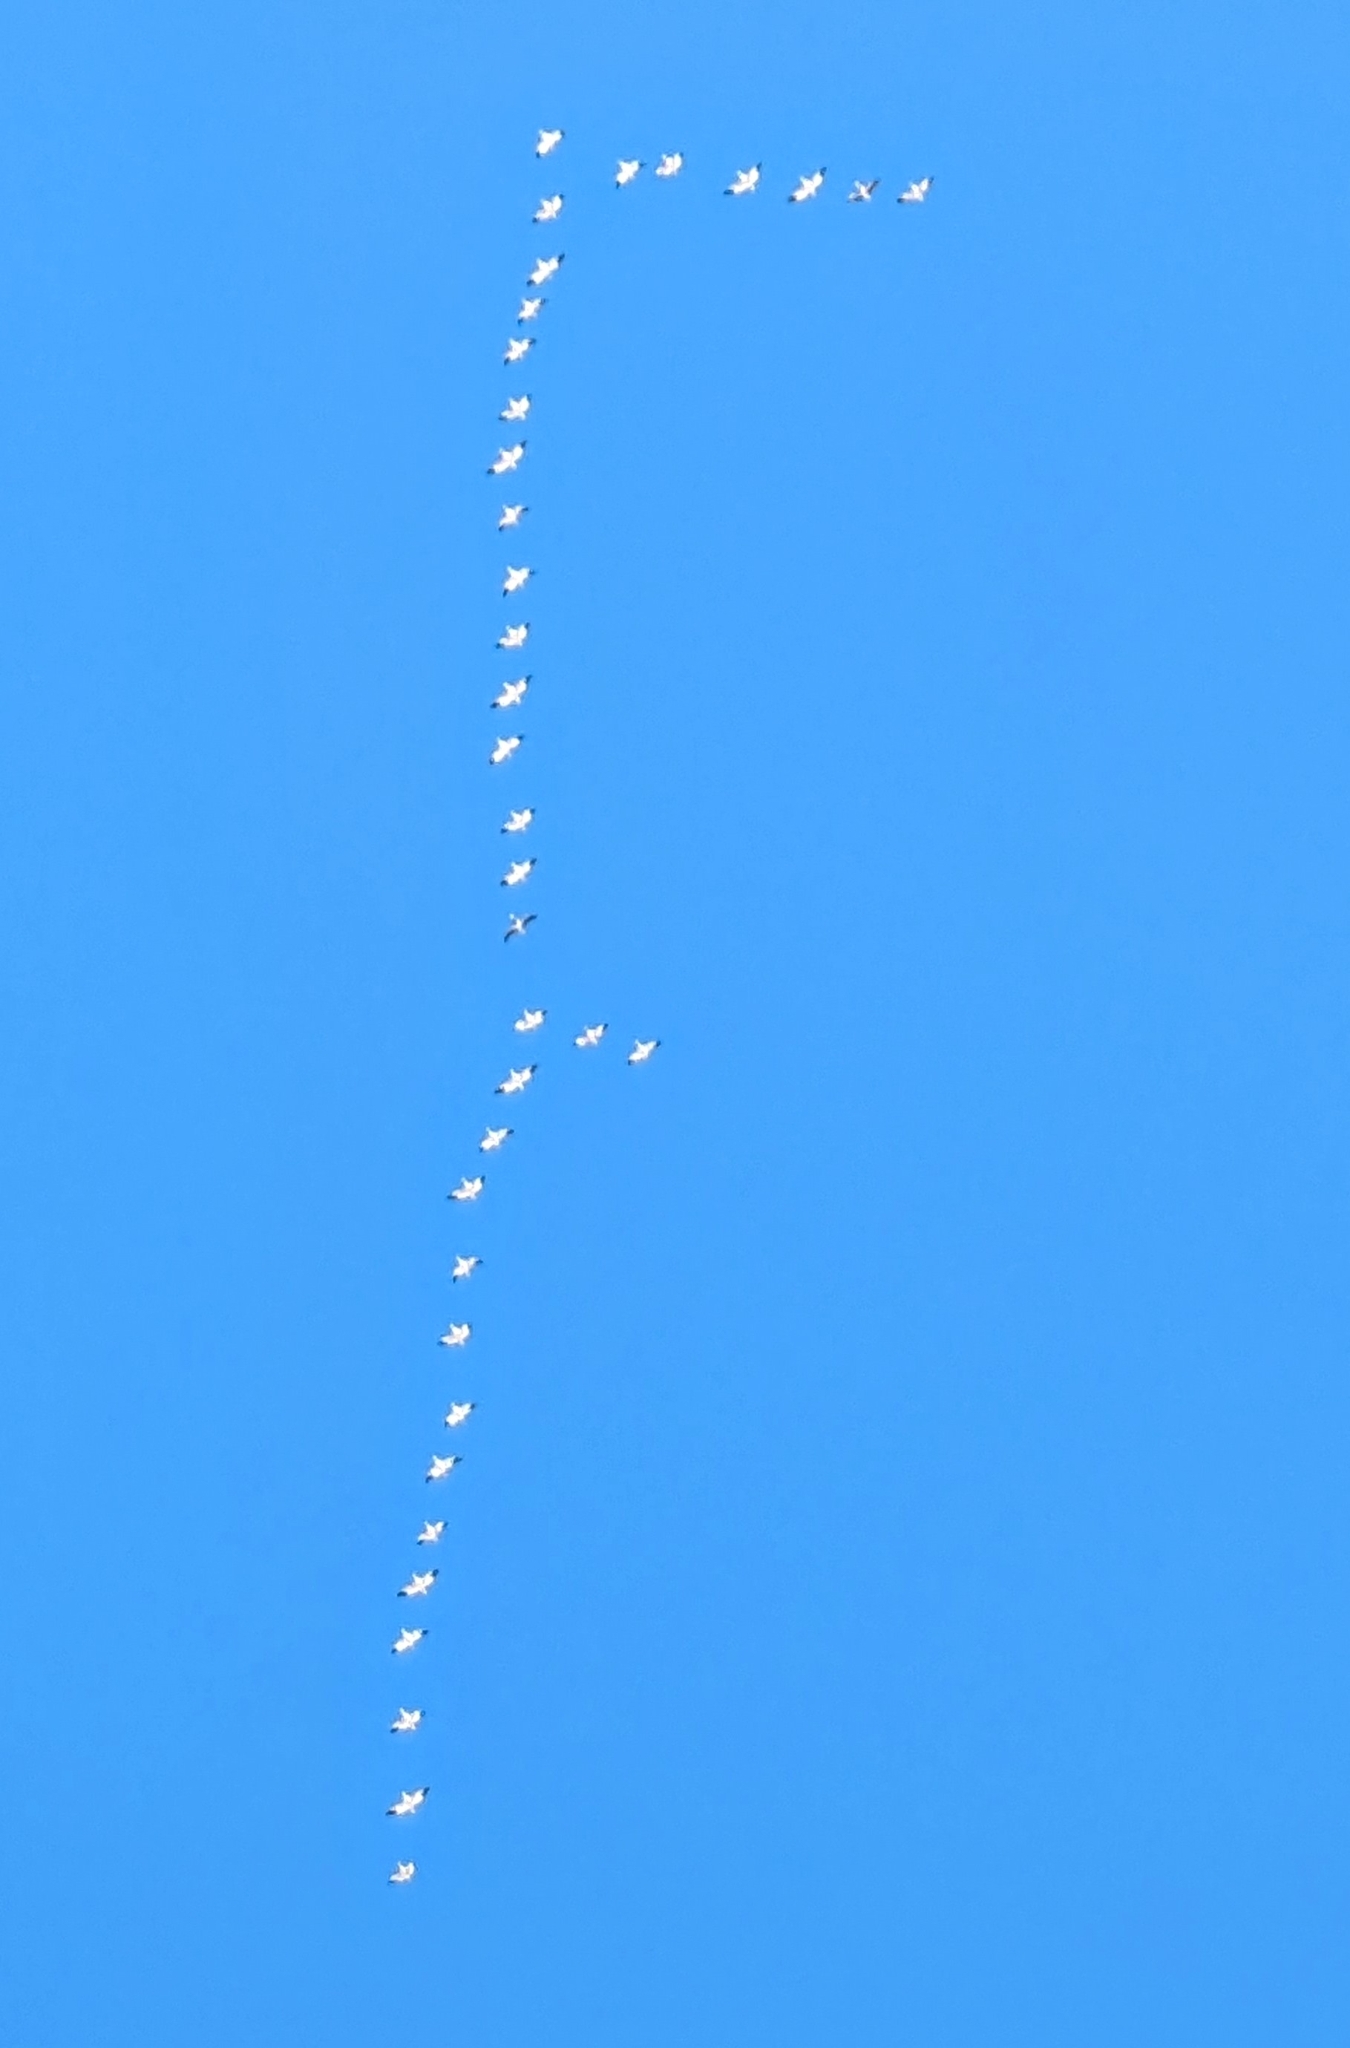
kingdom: Animalia
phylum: Chordata
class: Aves
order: Anseriformes
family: Anatidae
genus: Anser
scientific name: Anser caerulescens
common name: Snow goose
